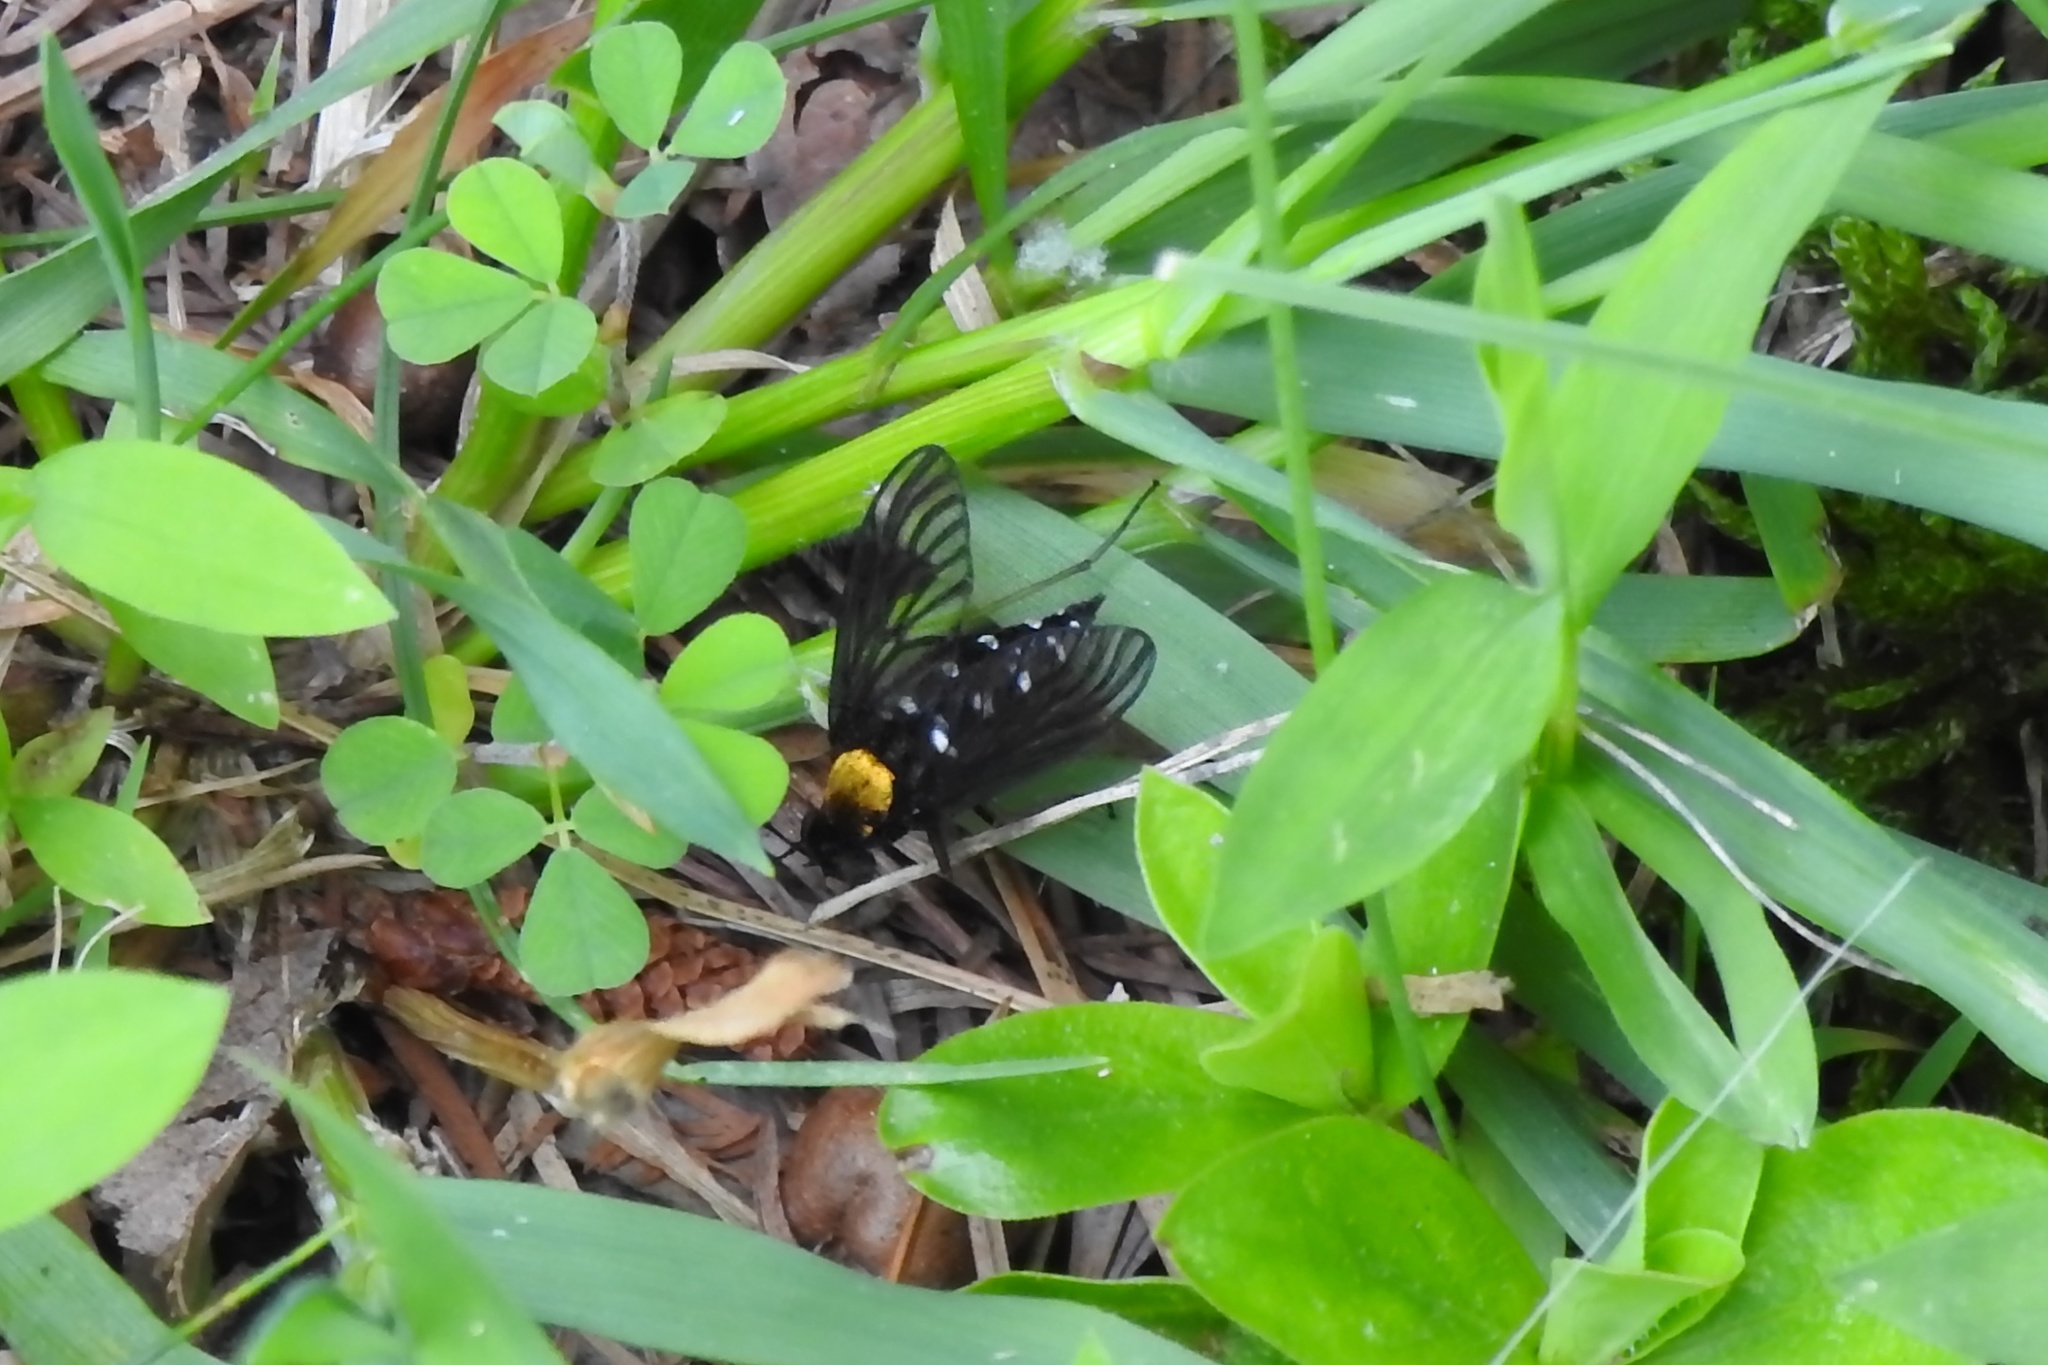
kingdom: Animalia
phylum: Arthropoda
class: Insecta
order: Diptera
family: Rhagionidae
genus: Chrysopilus
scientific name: Chrysopilus thoracicus
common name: Golden-backed snipe fly
